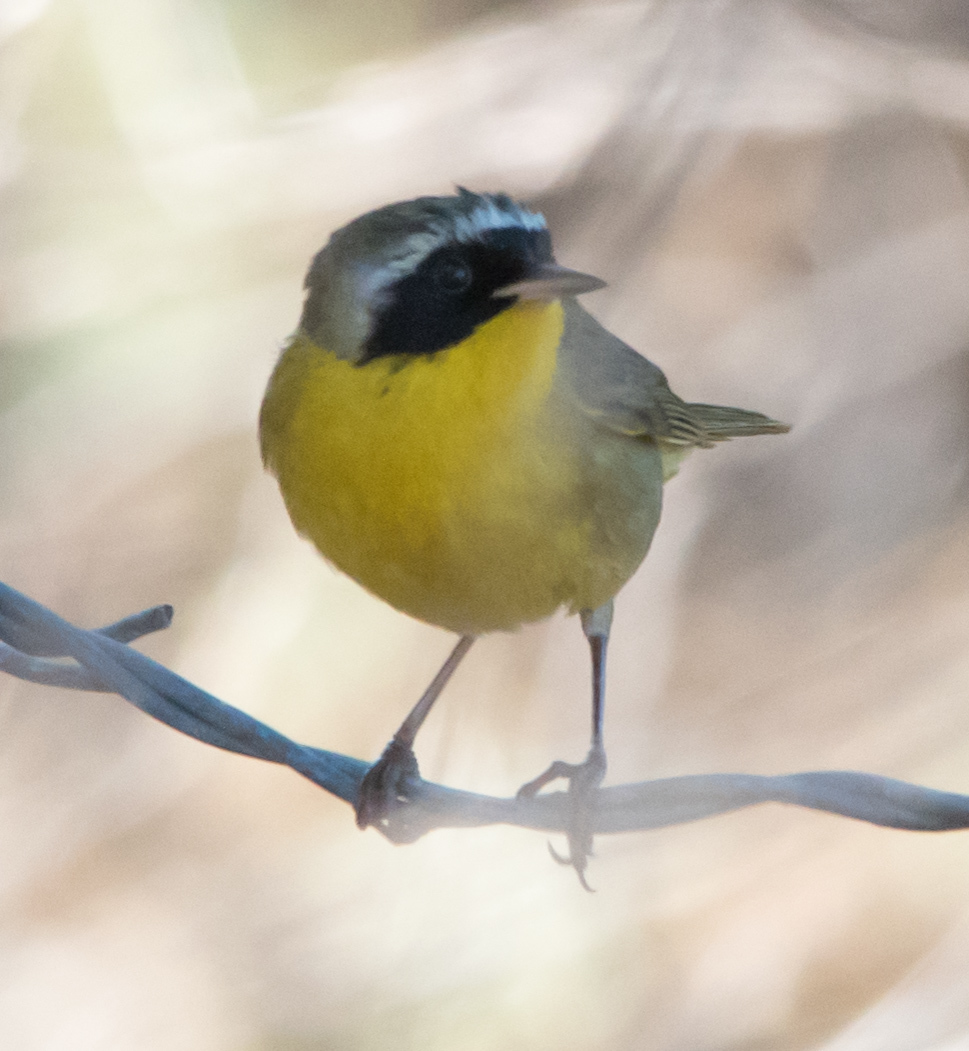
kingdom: Animalia
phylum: Chordata
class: Aves
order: Passeriformes
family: Parulidae
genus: Geothlypis
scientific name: Geothlypis trichas
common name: Common yellowthroat
